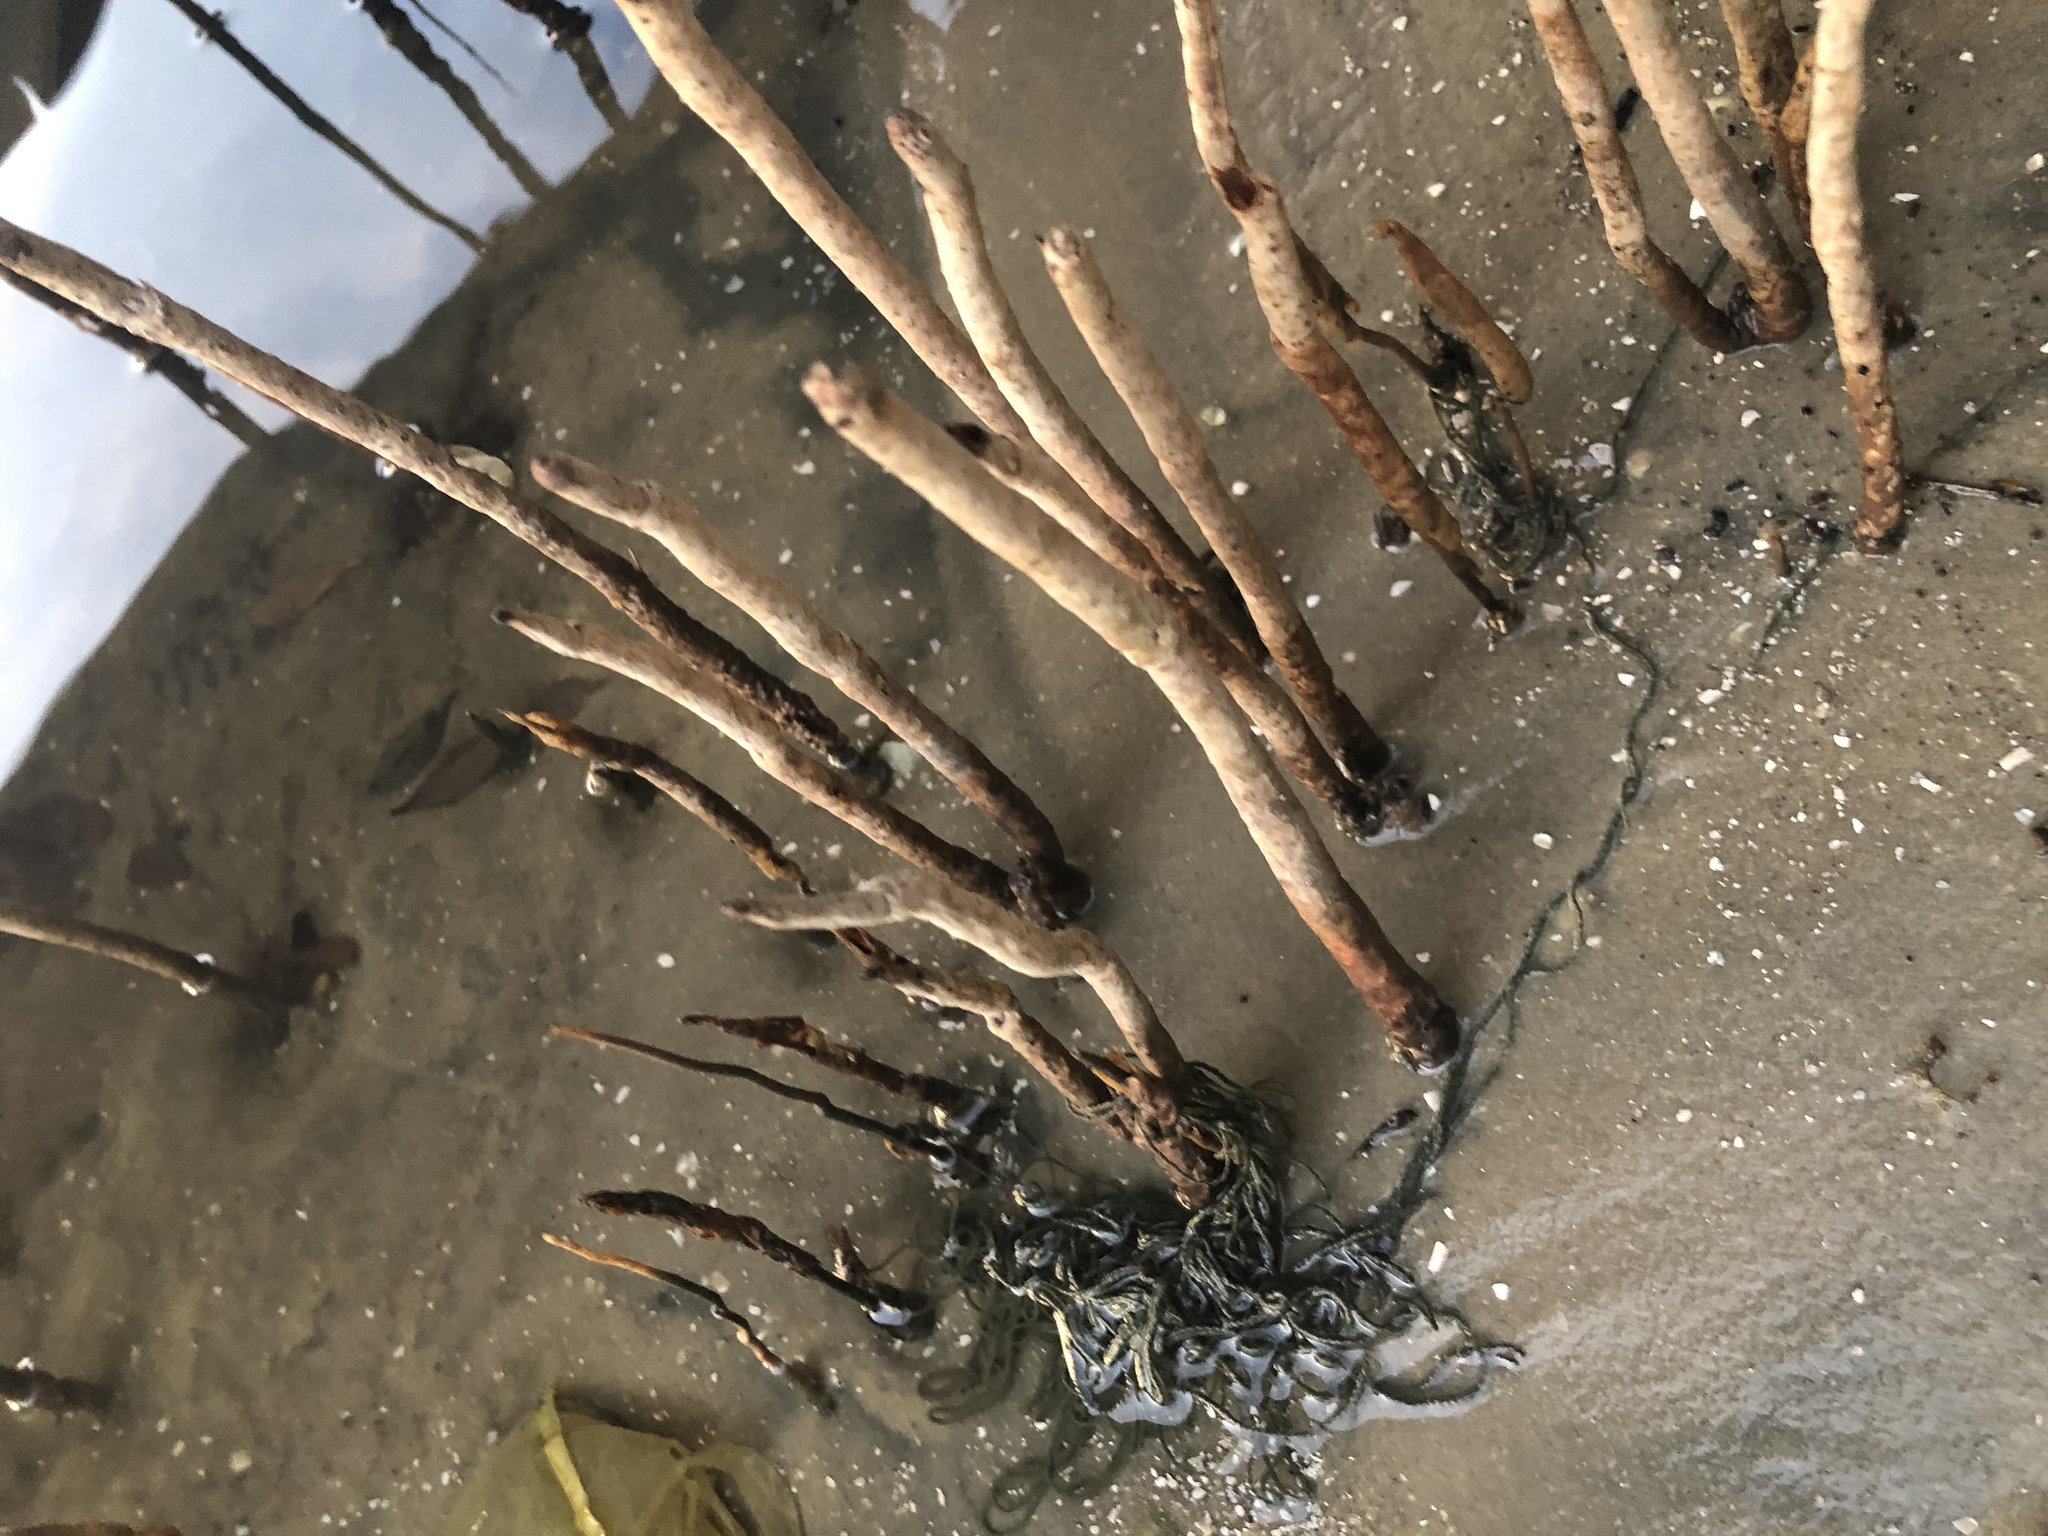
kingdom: Plantae
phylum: Tracheophyta
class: Magnoliopsida
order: Lamiales
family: Acanthaceae
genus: Avicennia
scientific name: Avicennia germinans
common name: Black mangrove
